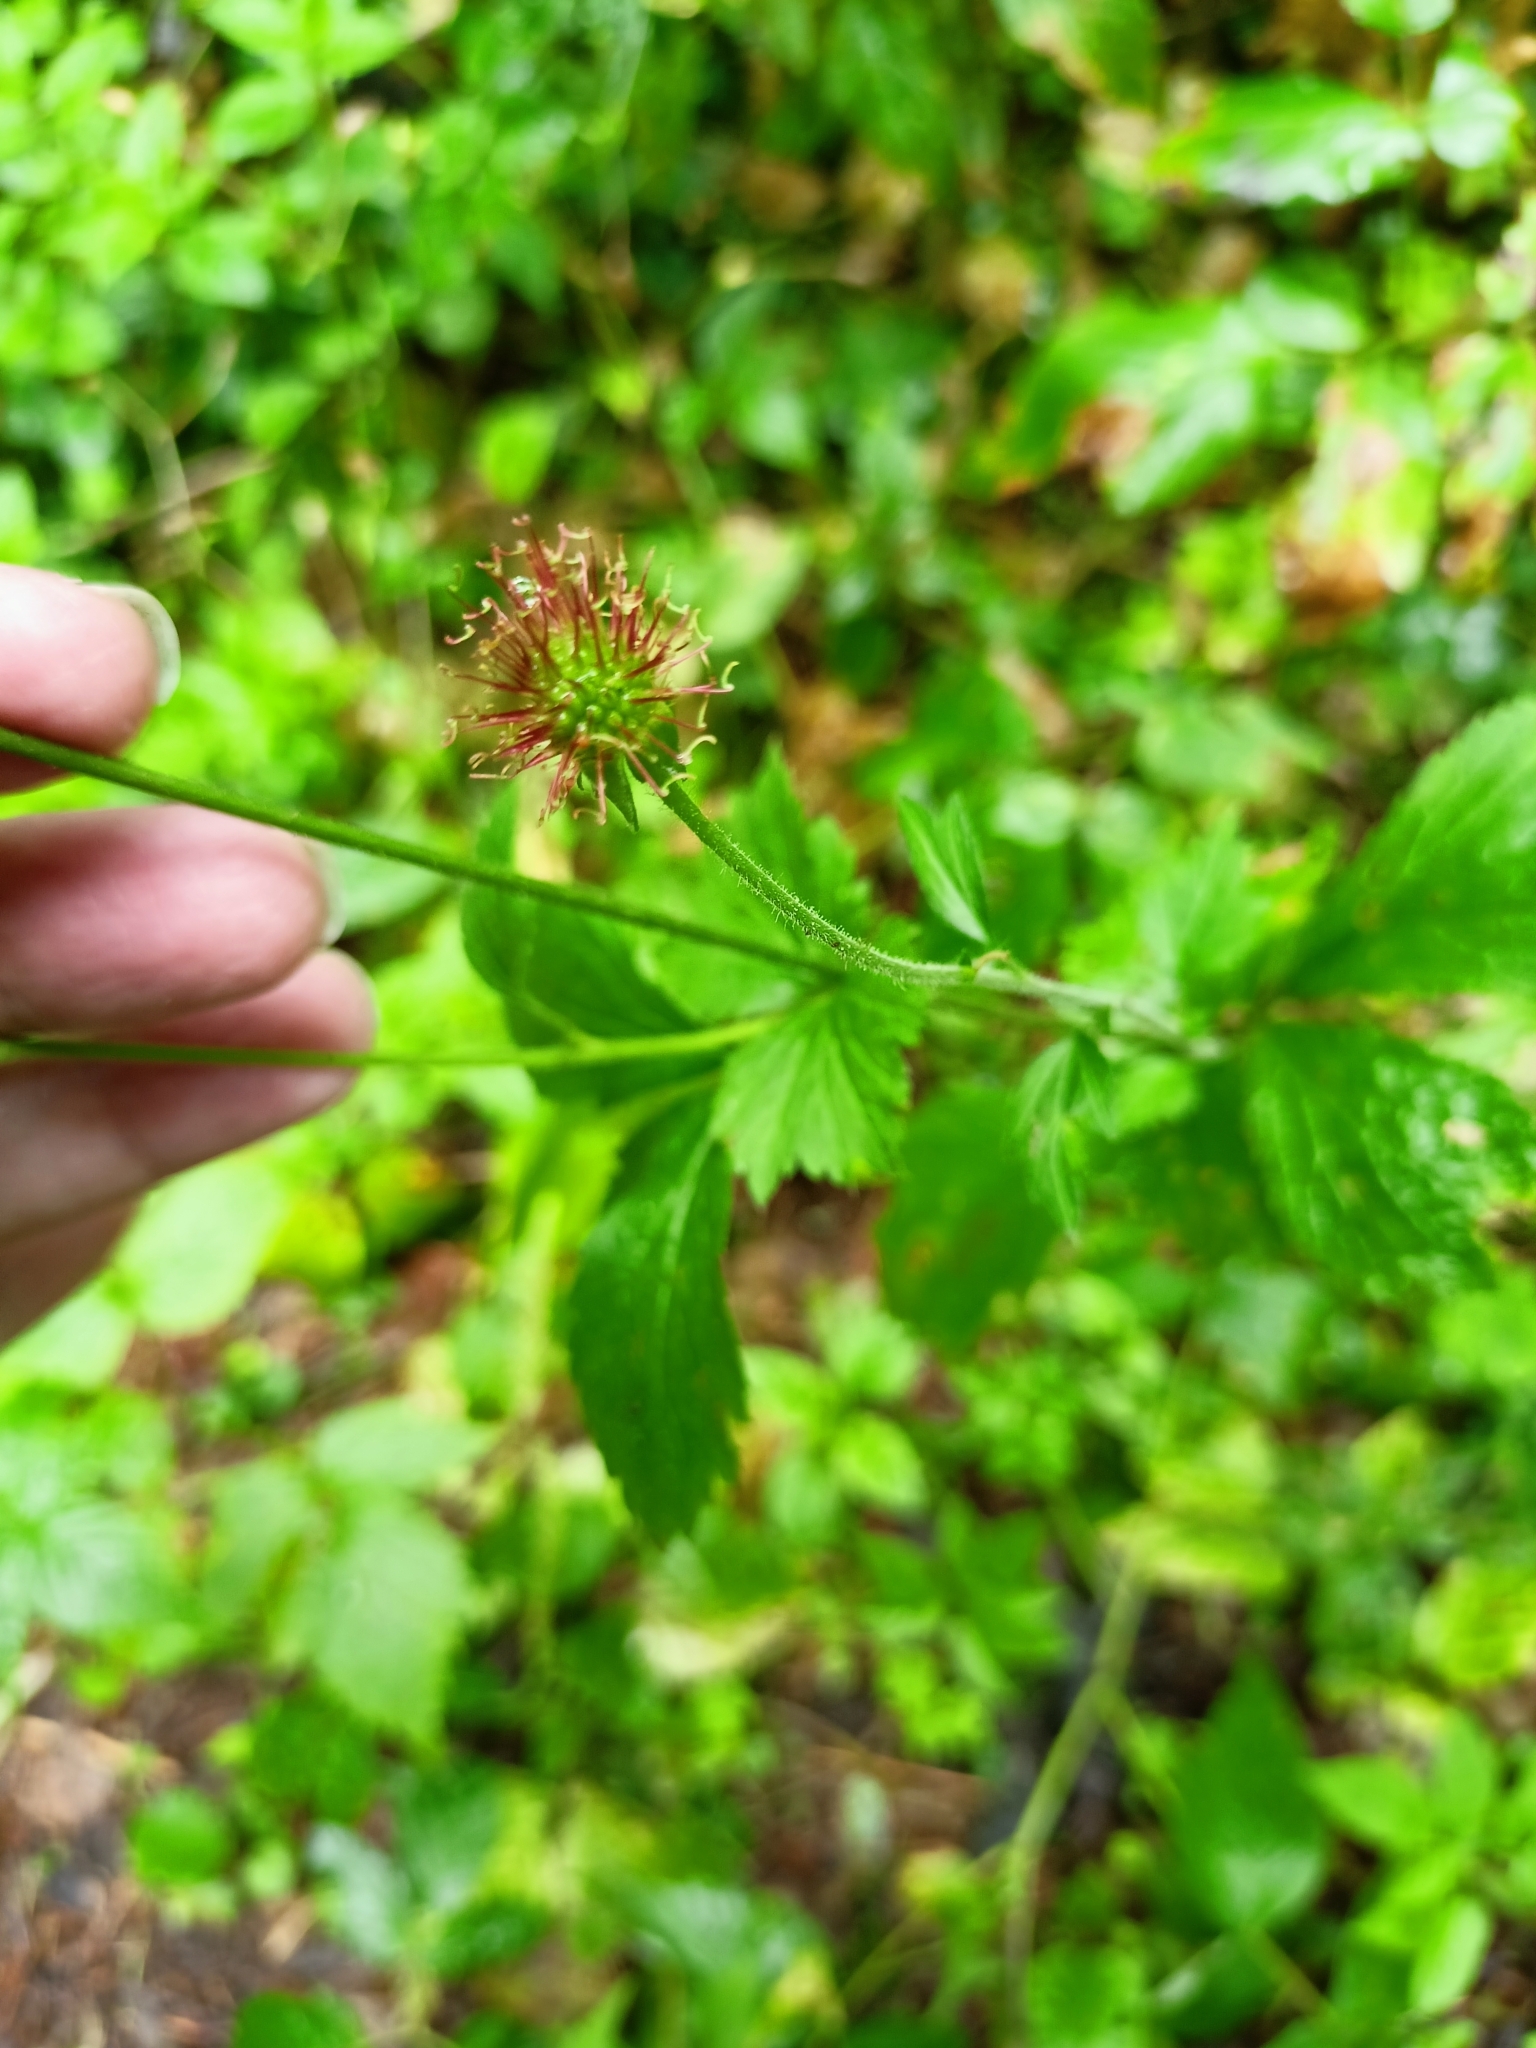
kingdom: Plantae
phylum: Tracheophyta
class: Magnoliopsida
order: Rosales
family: Rosaceae
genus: Geum
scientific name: Geum urbanum
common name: Wood avens
